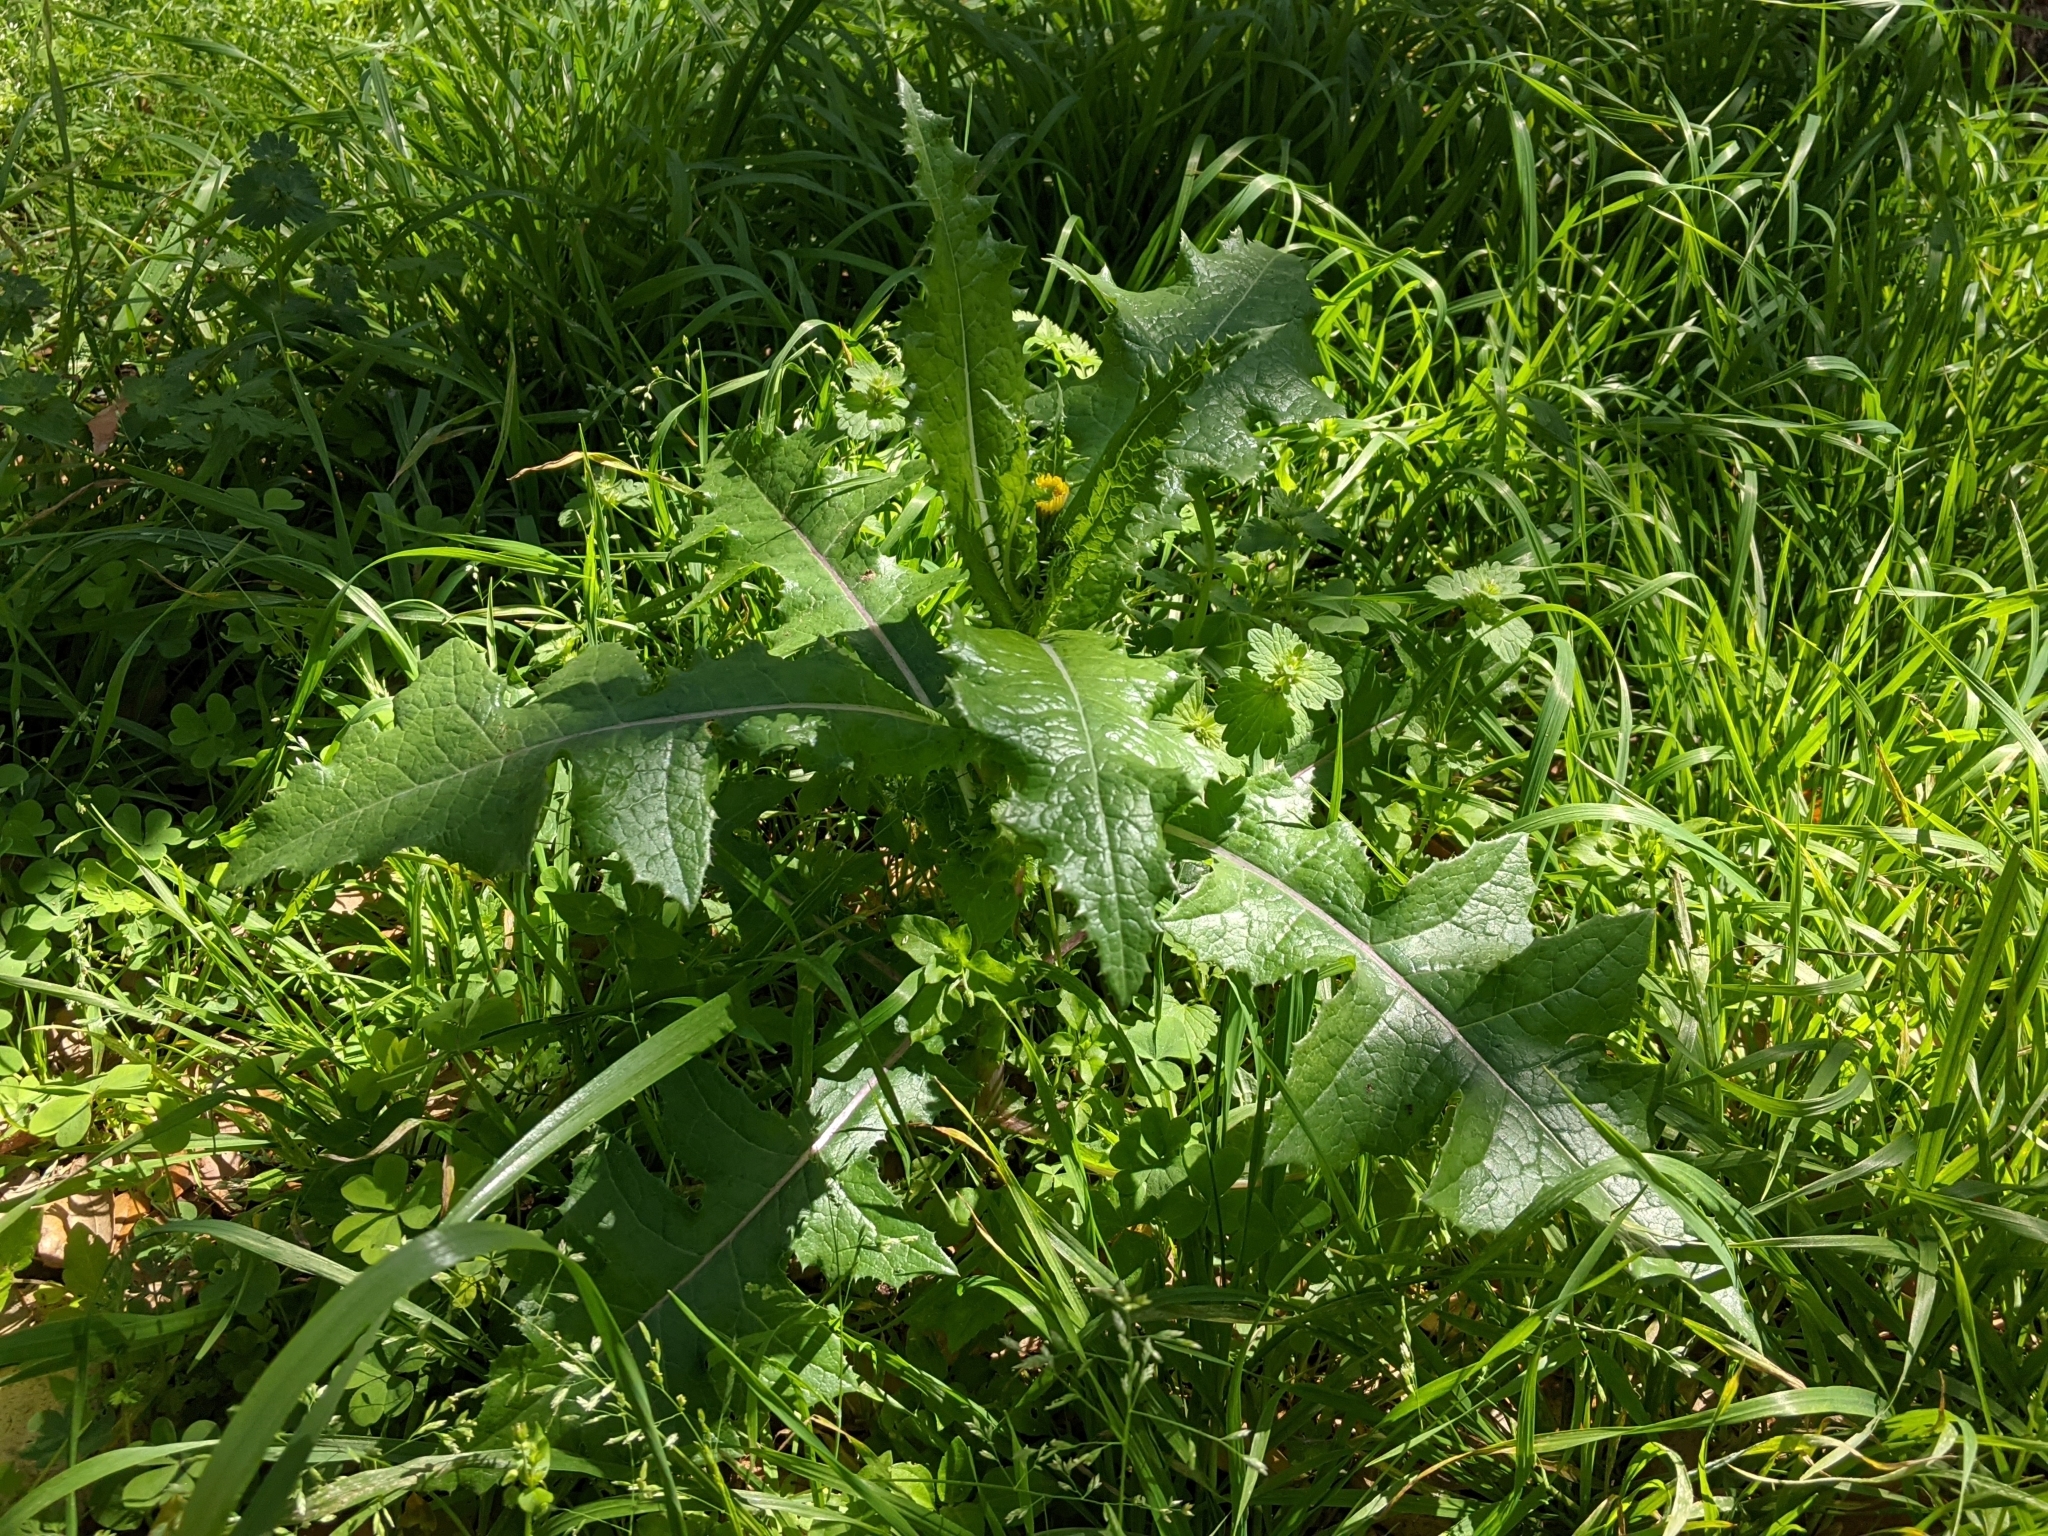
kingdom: Plantae
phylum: Tracheophyta
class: Magnoliopsida
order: Asterales
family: Asteraceae
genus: Sonchus
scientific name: Sonchus asper
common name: Prickly sow-thistle
